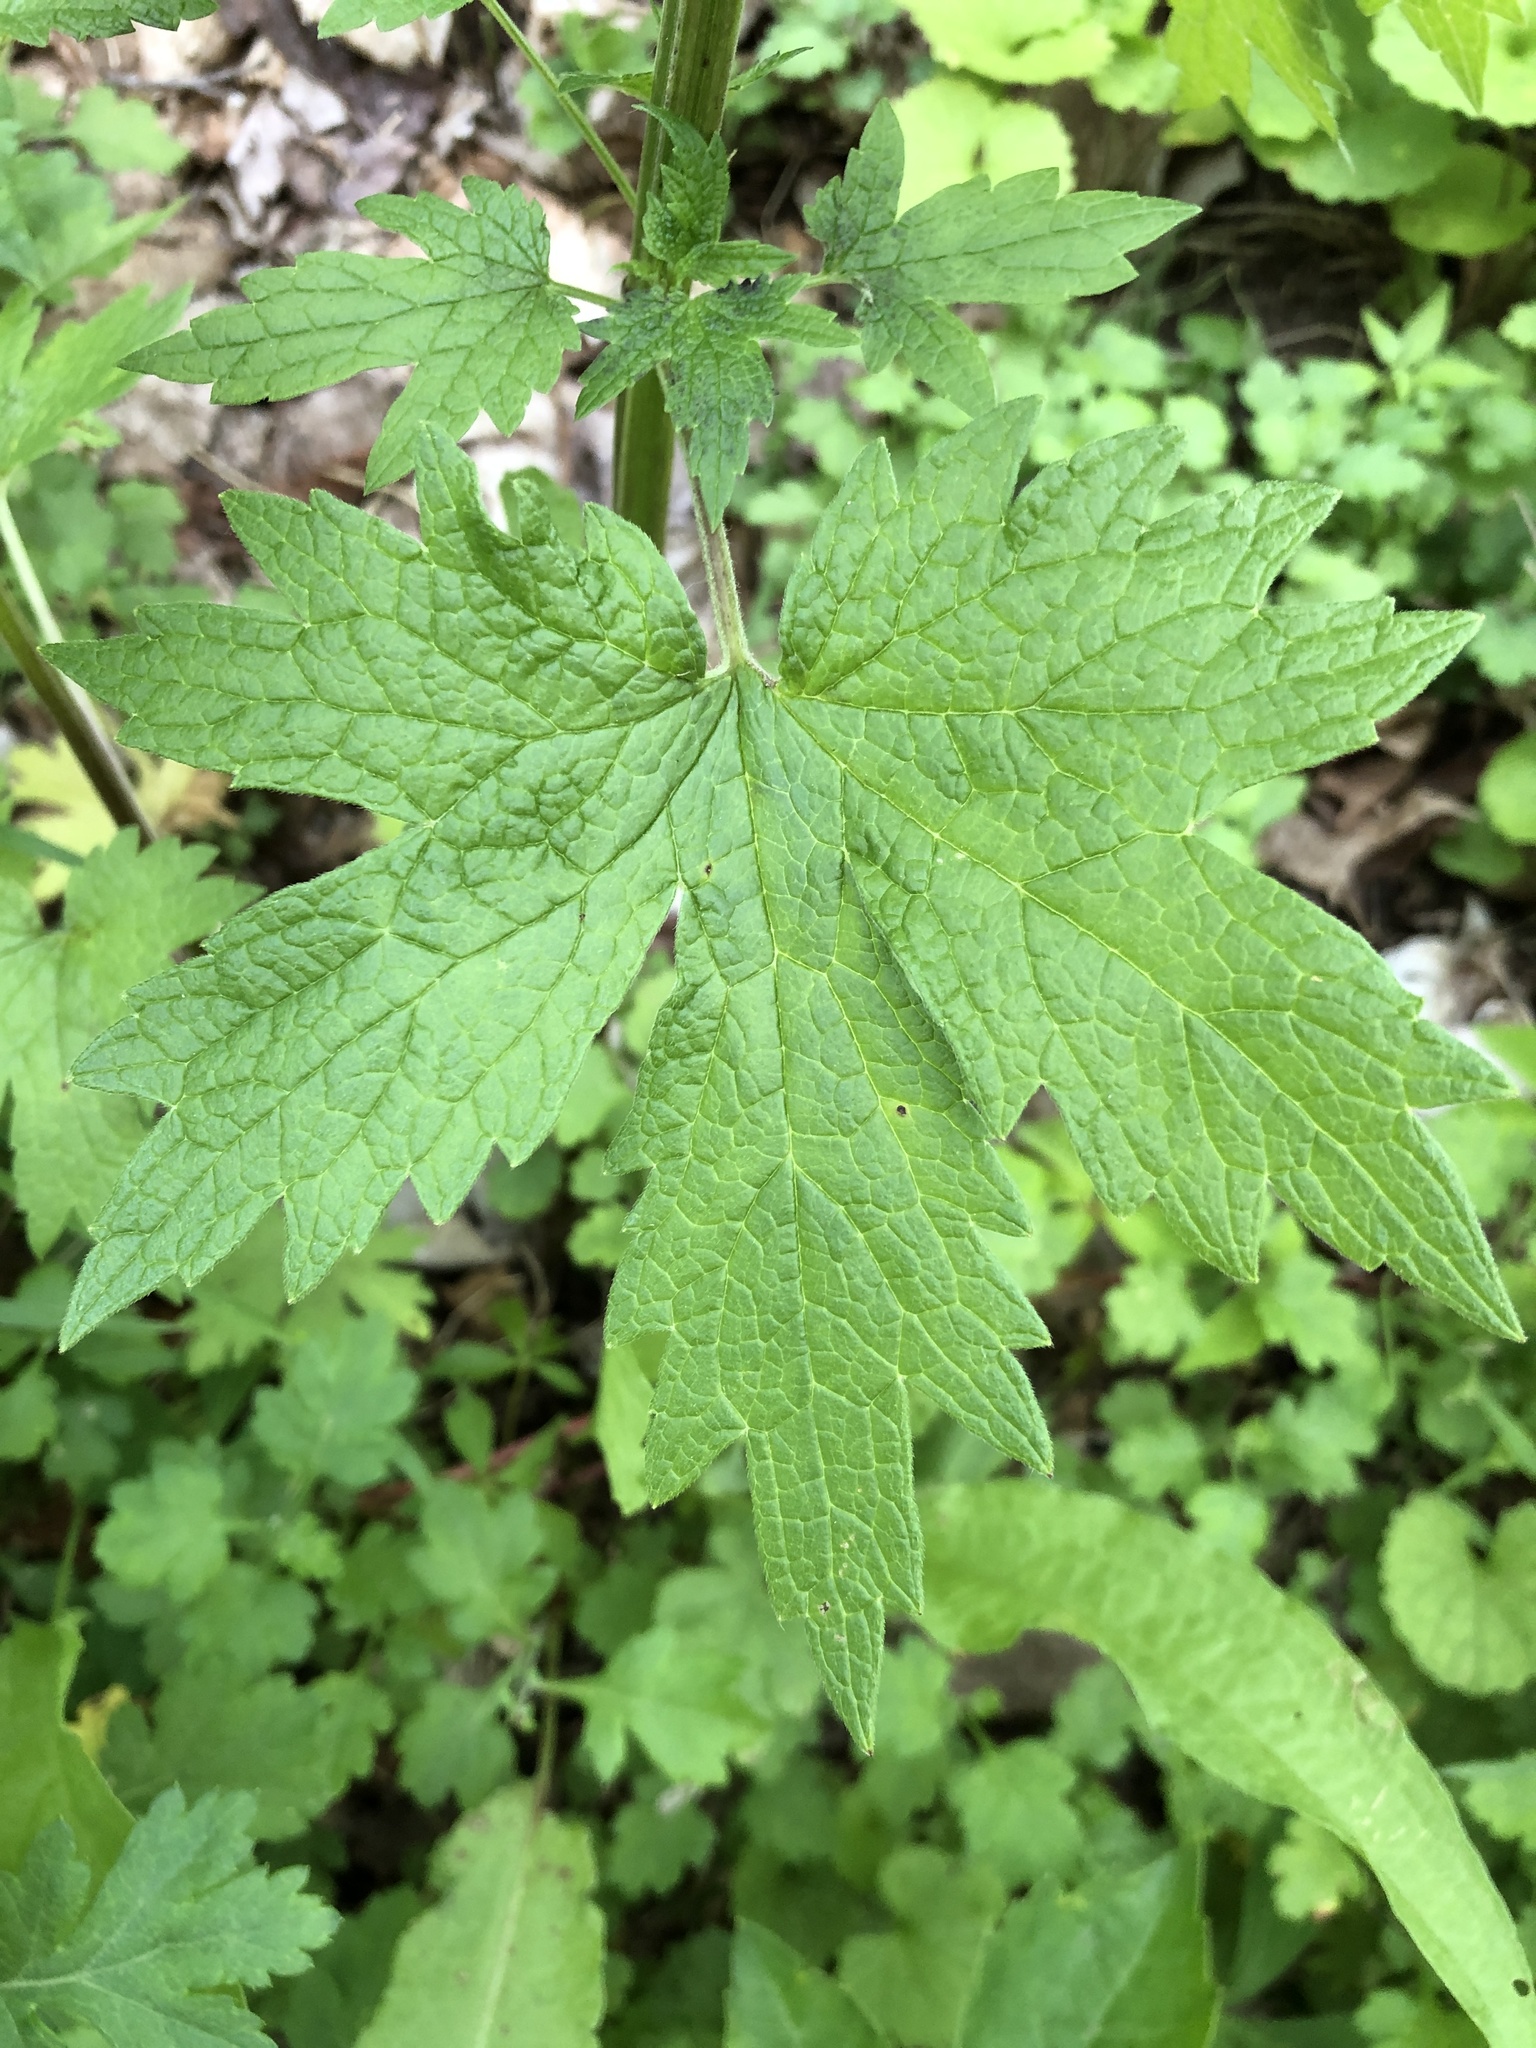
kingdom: Plantae
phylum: Tracheophyta
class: Magnoliopsida
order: Lamiales
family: Lamiaceae
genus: Leonurus
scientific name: Leonurus cardiaca
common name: Motherwort
